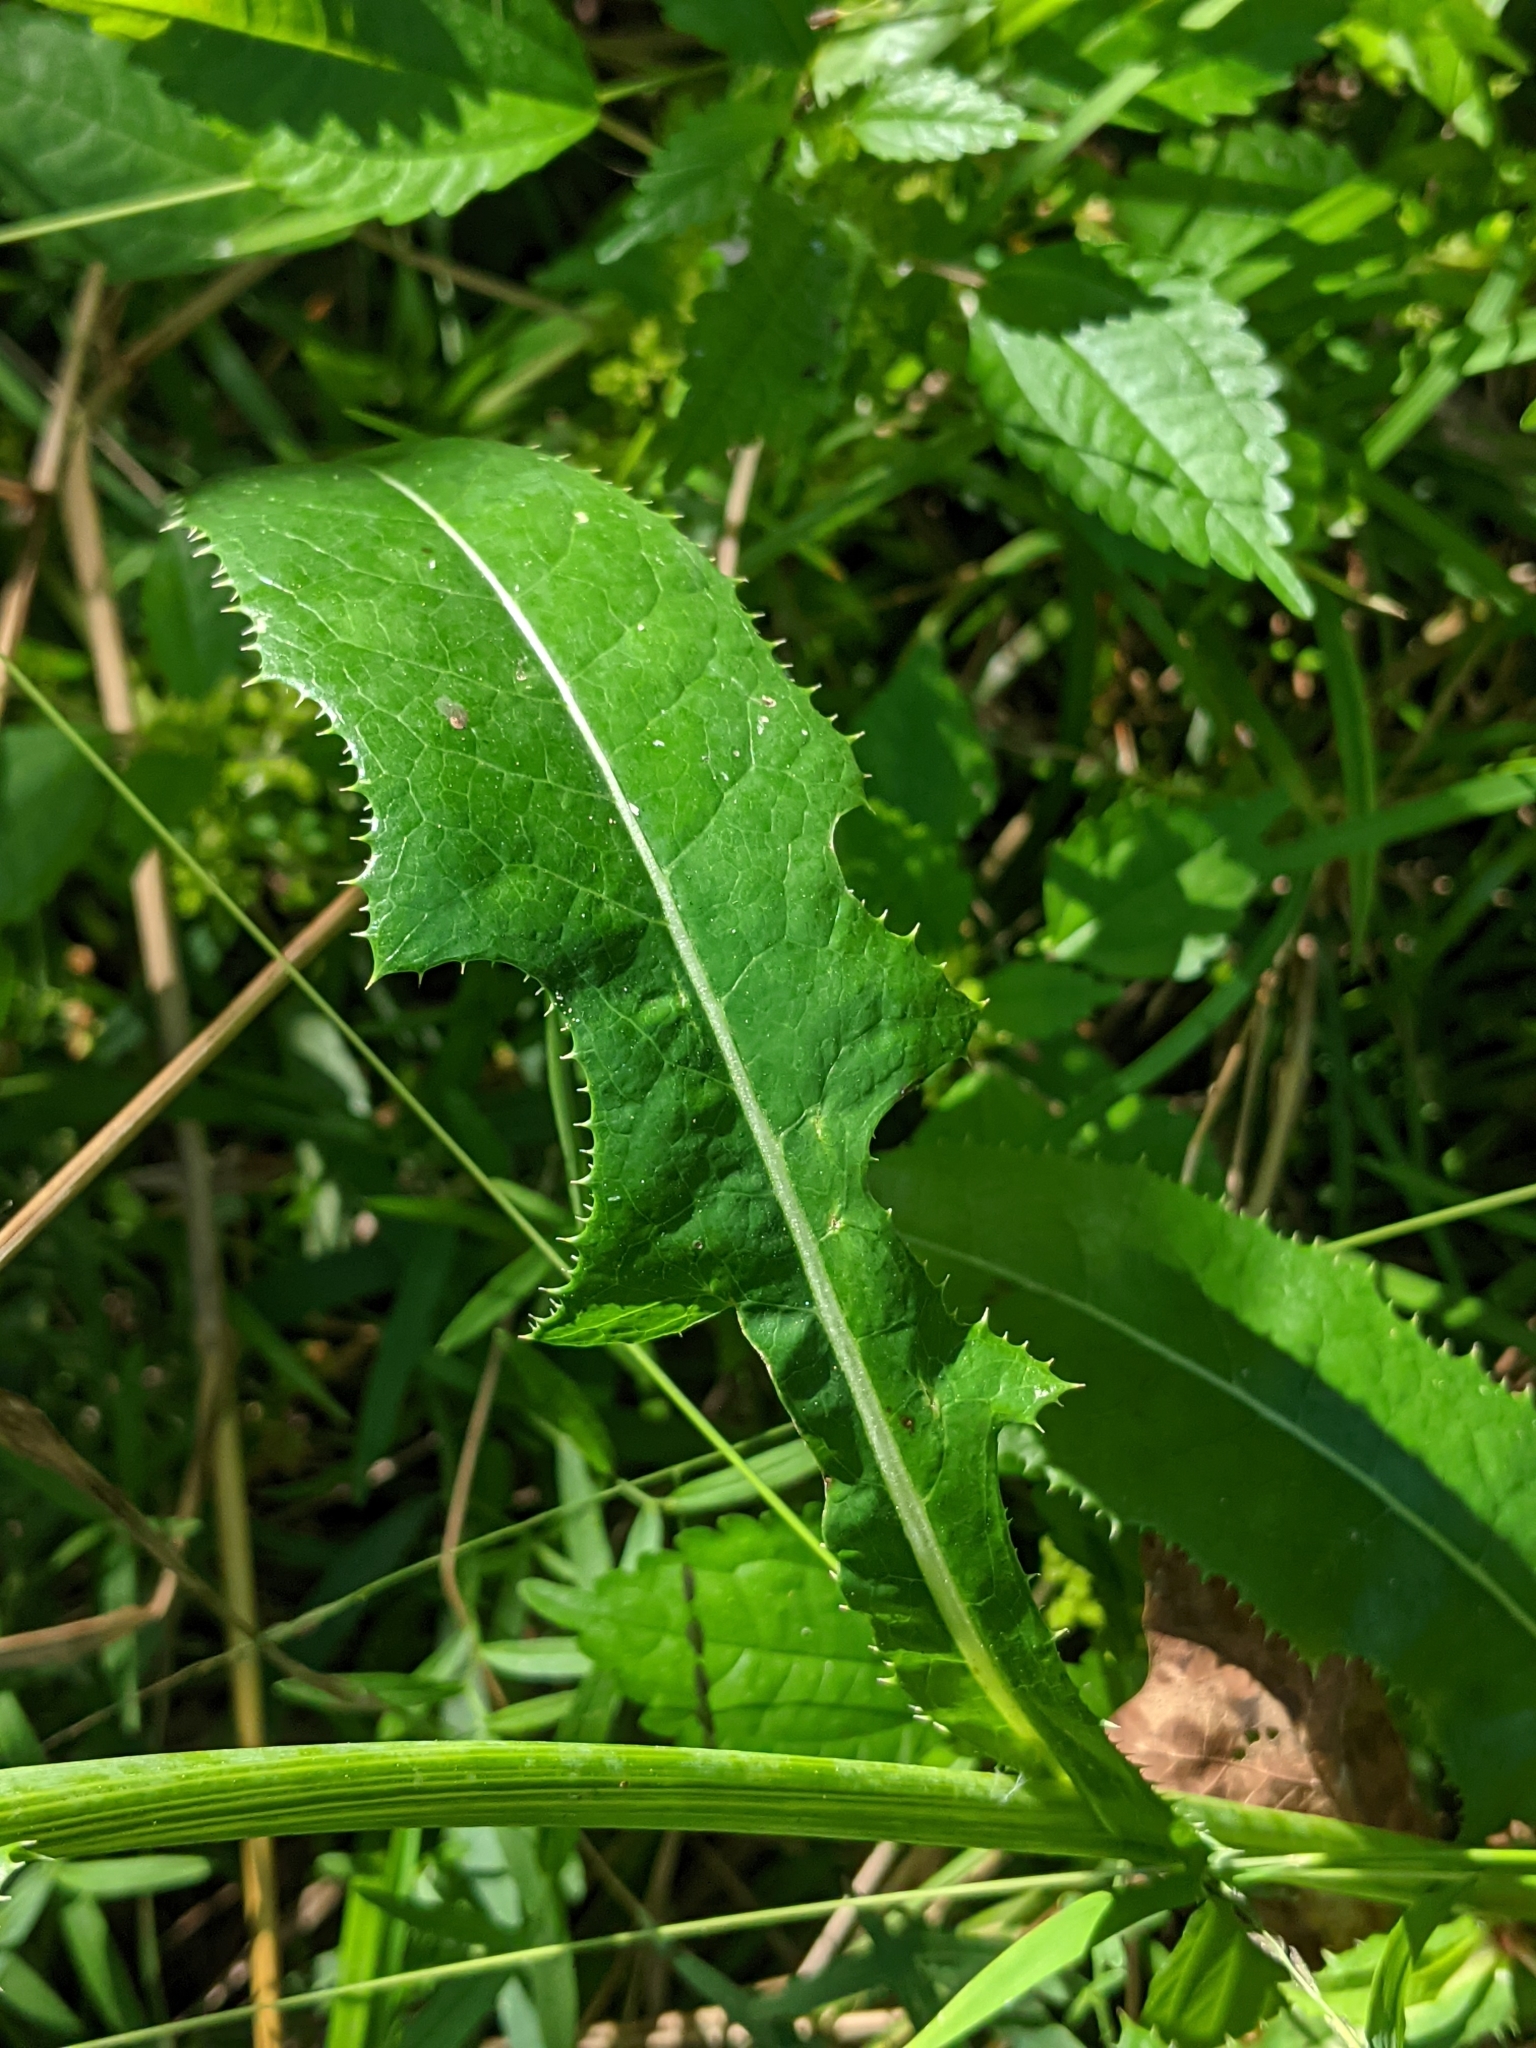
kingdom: Plantae
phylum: Tracheophyta
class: Magnoliopsida
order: Asterales
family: Asteraceae
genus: Sonchus
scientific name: Sonchus arvensis
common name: Perennial sow-thistle
